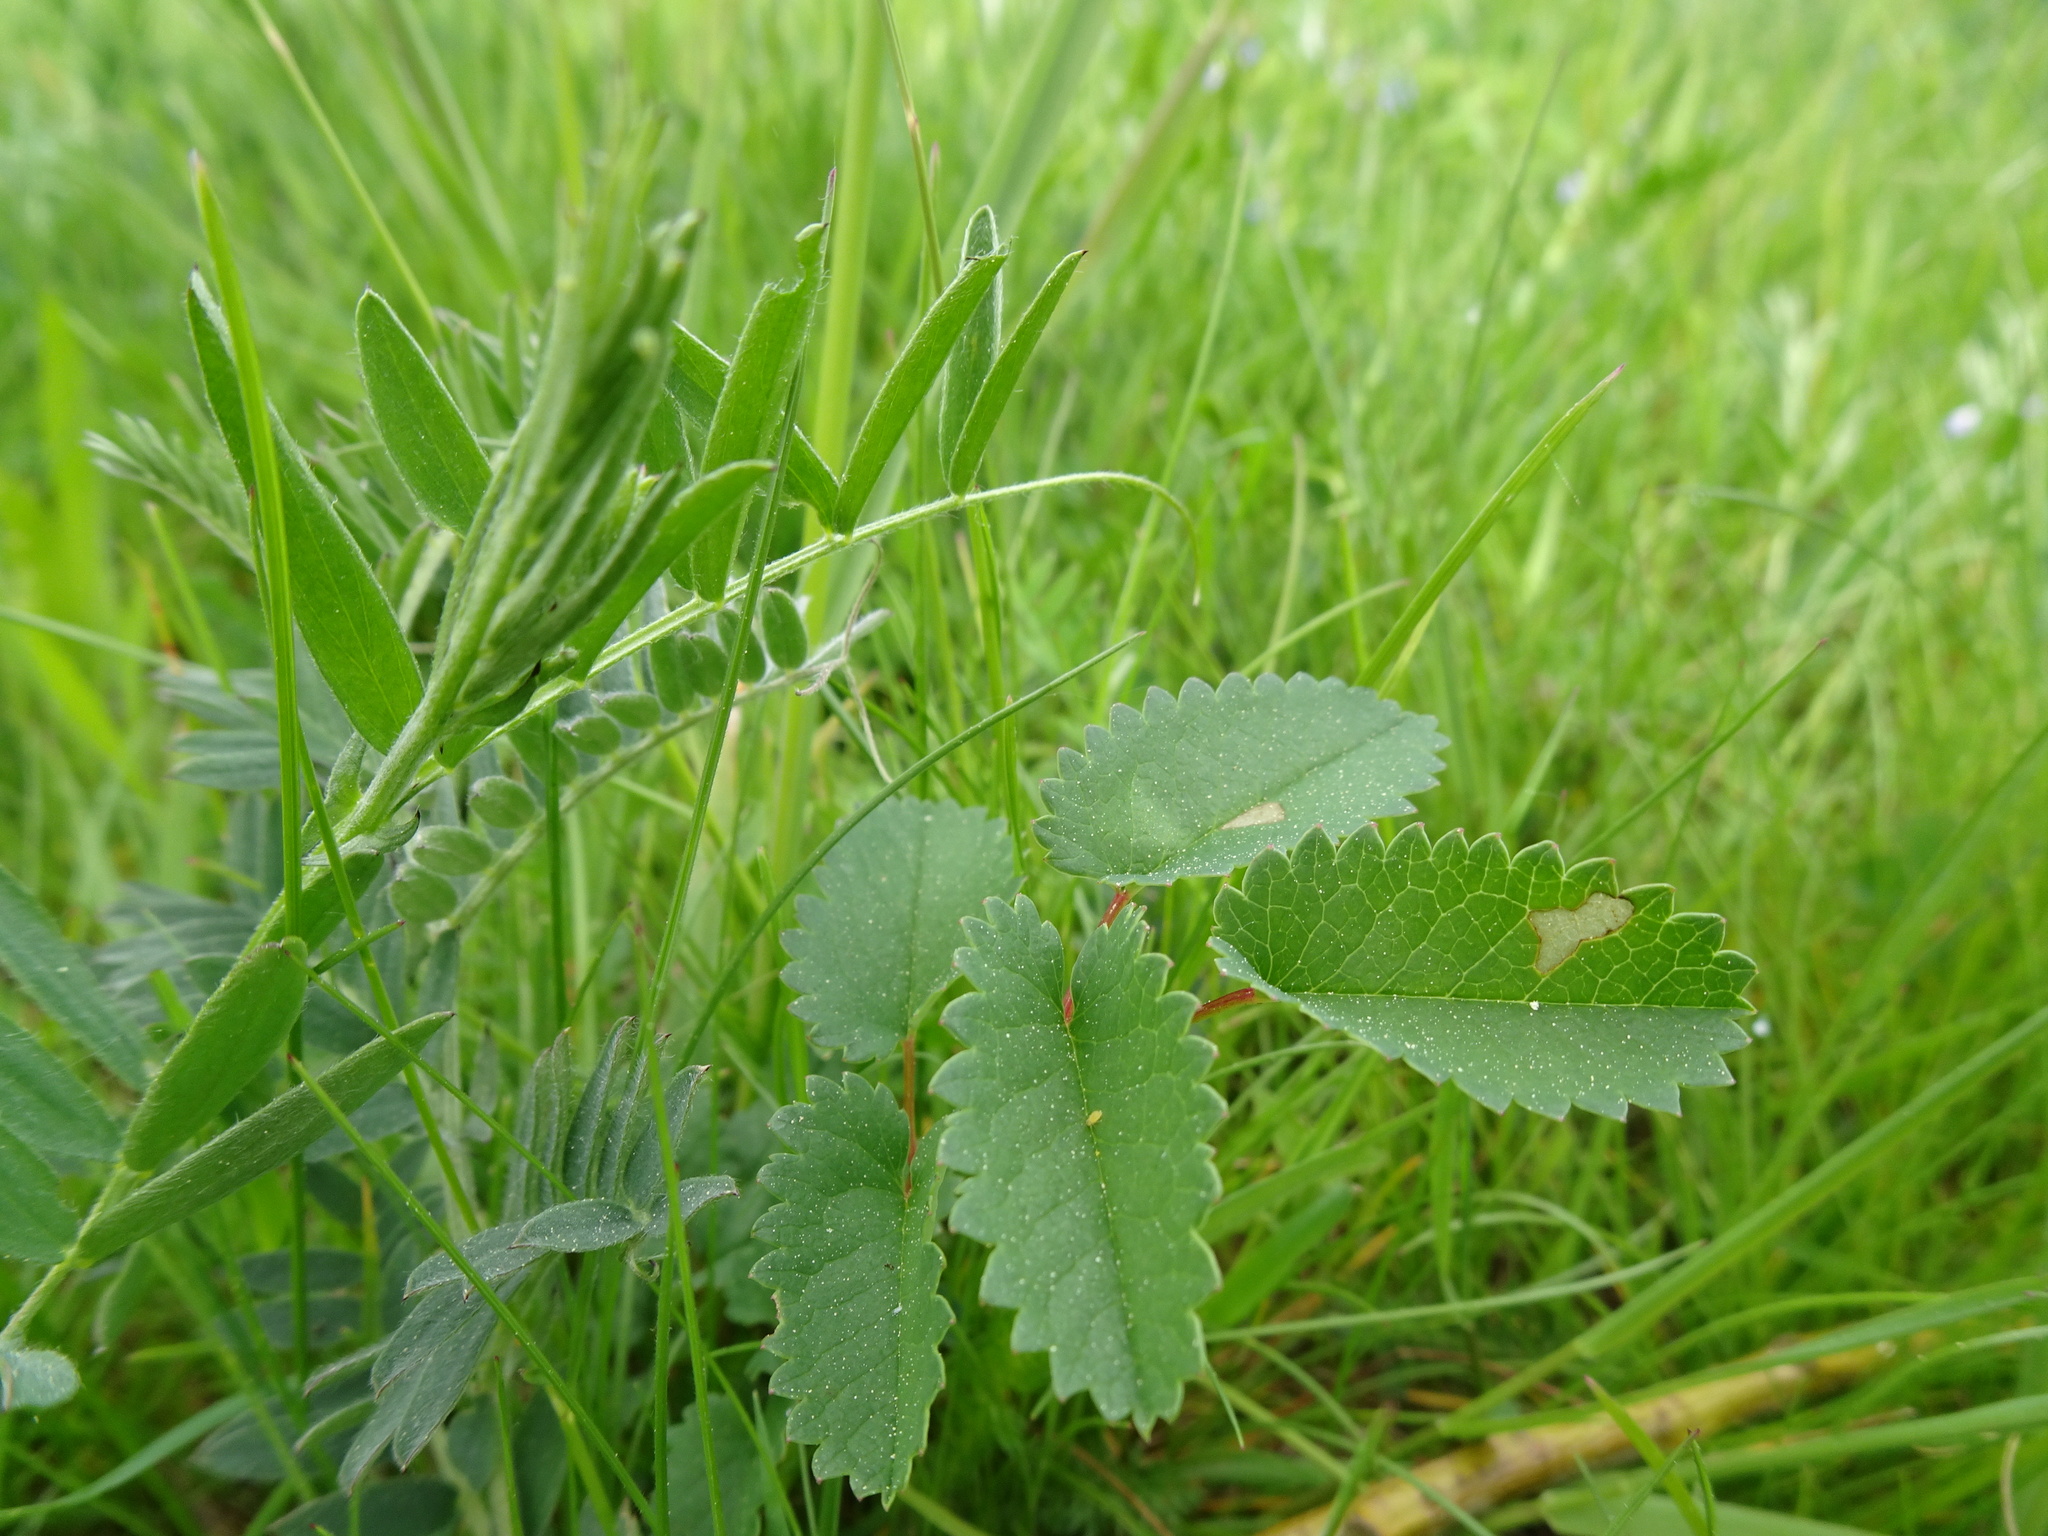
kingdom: Plantae
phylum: Tracheophyta
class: Magnoliopsida
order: Rosales
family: Rosaceae
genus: Sanguisorba
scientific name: Sanguisorba officinalis
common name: Great burnet
